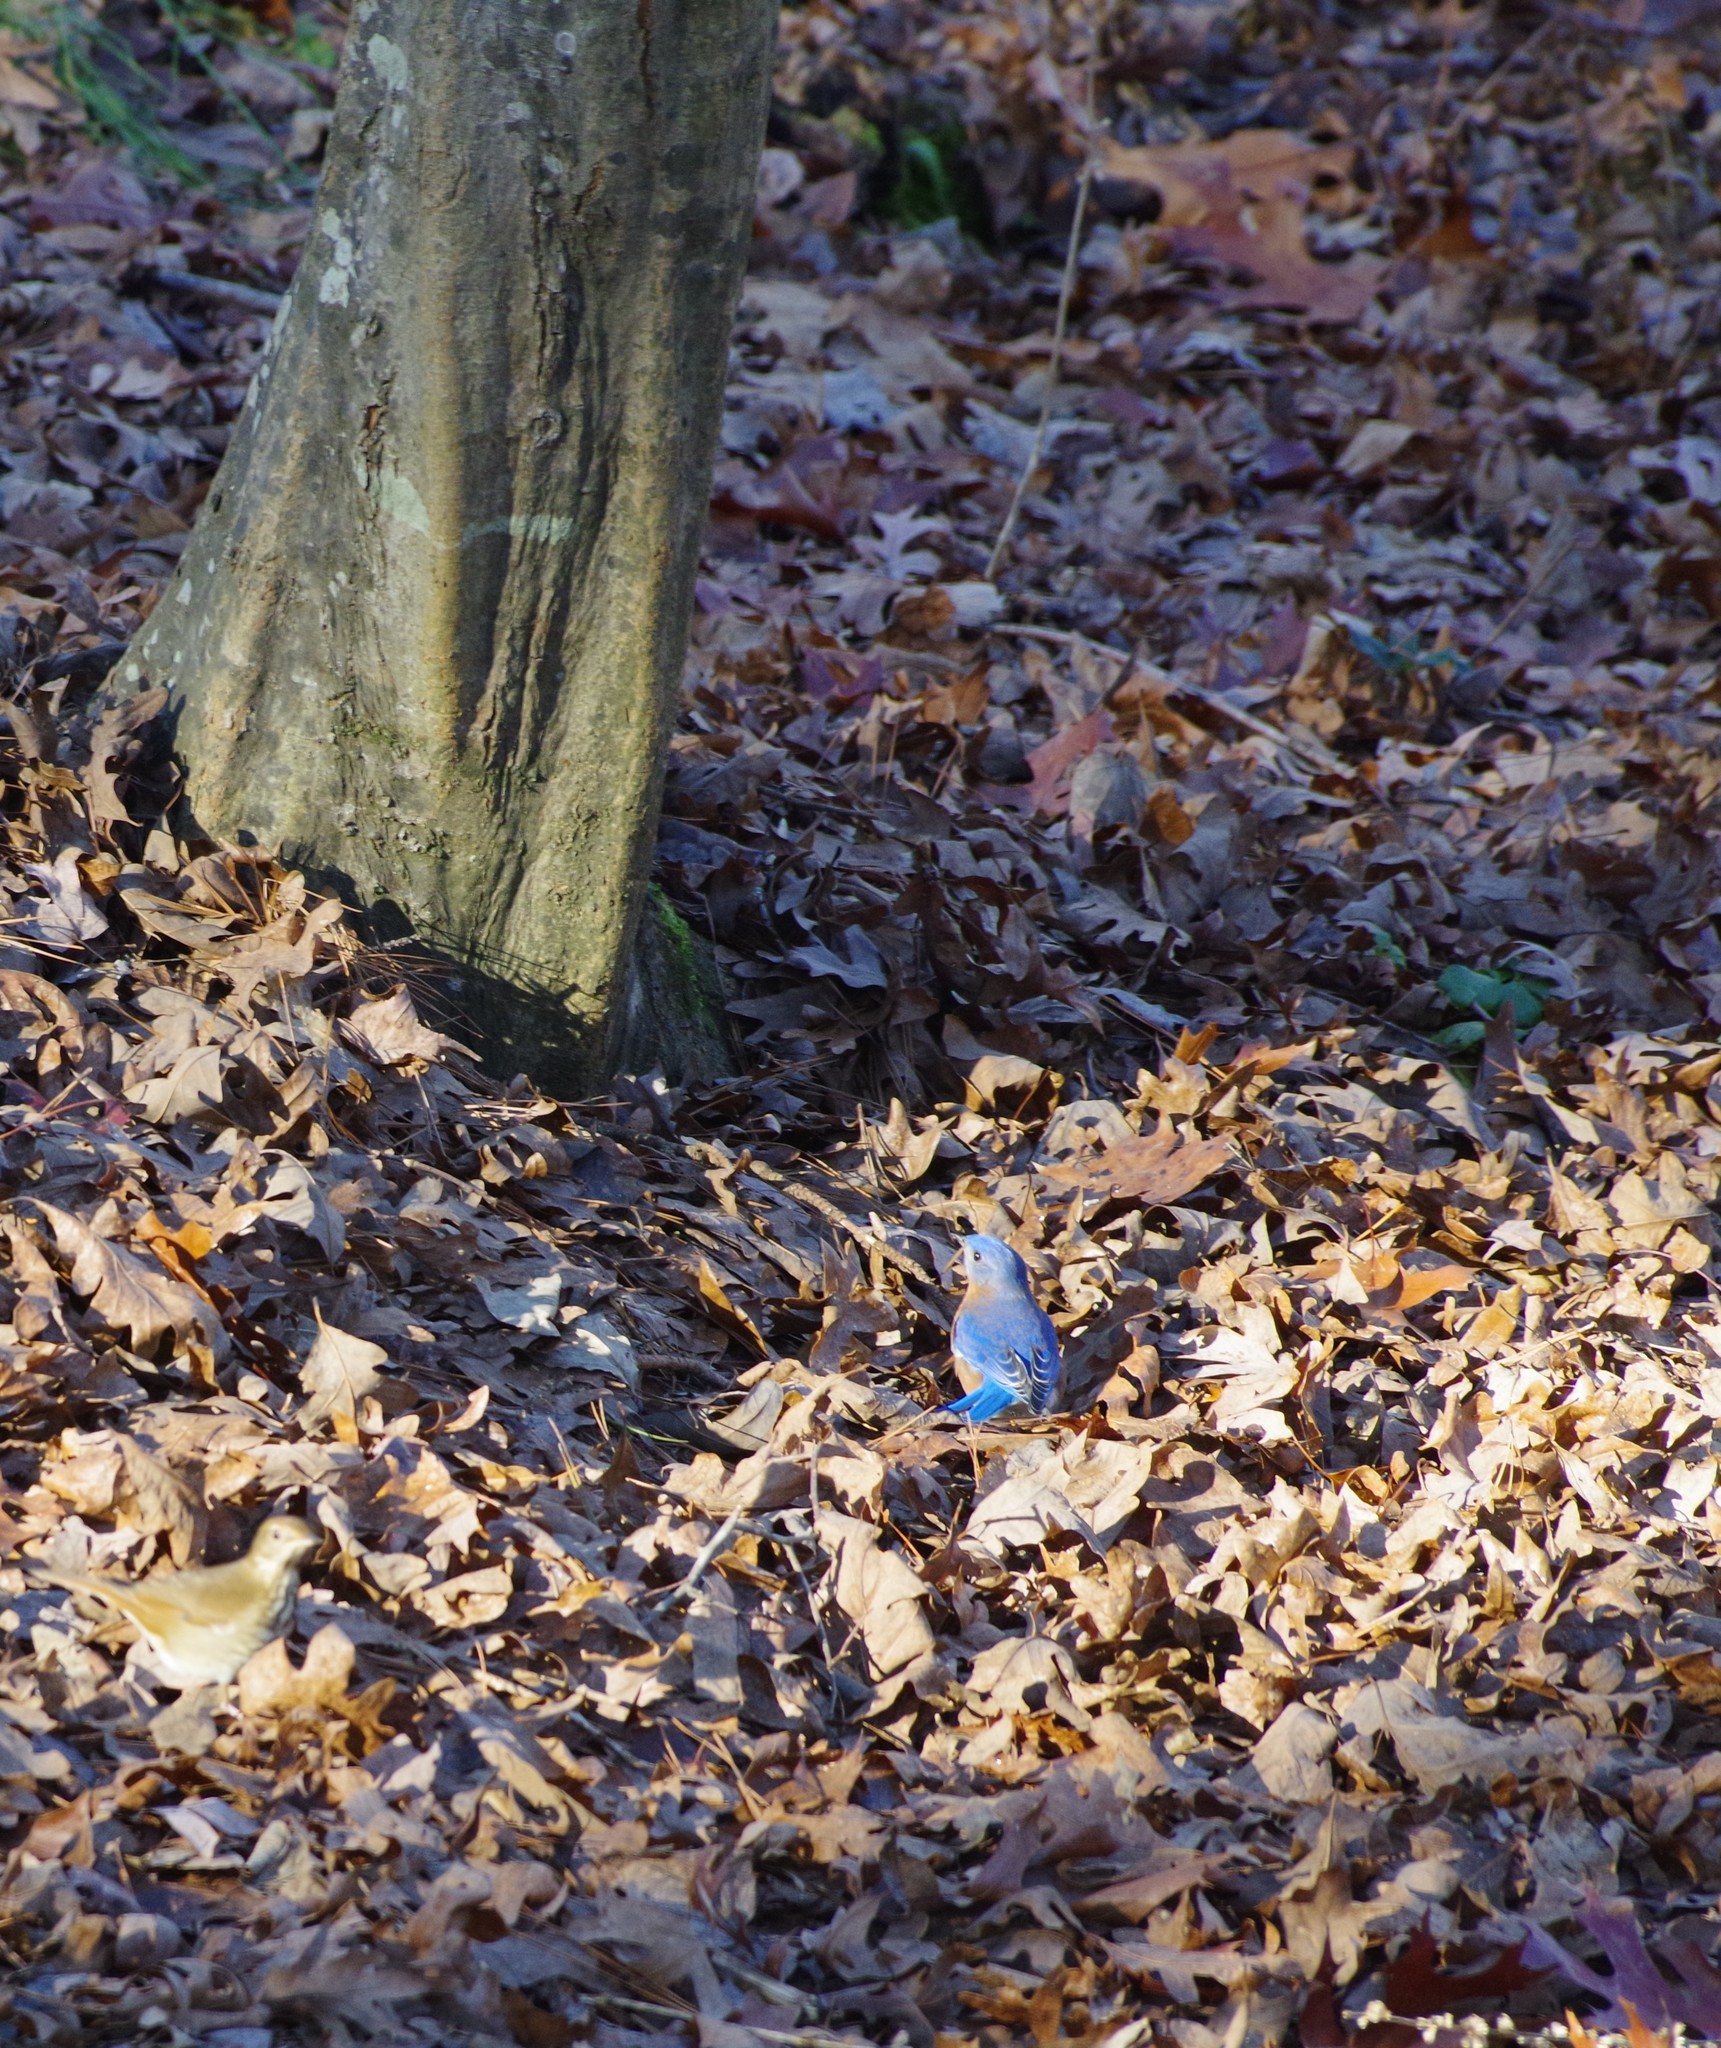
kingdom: Animalia
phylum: Chordata
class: Aves
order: Passeriformes
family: Turdidae
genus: Sialia
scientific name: Sialia sialis
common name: Eastern bluebird
